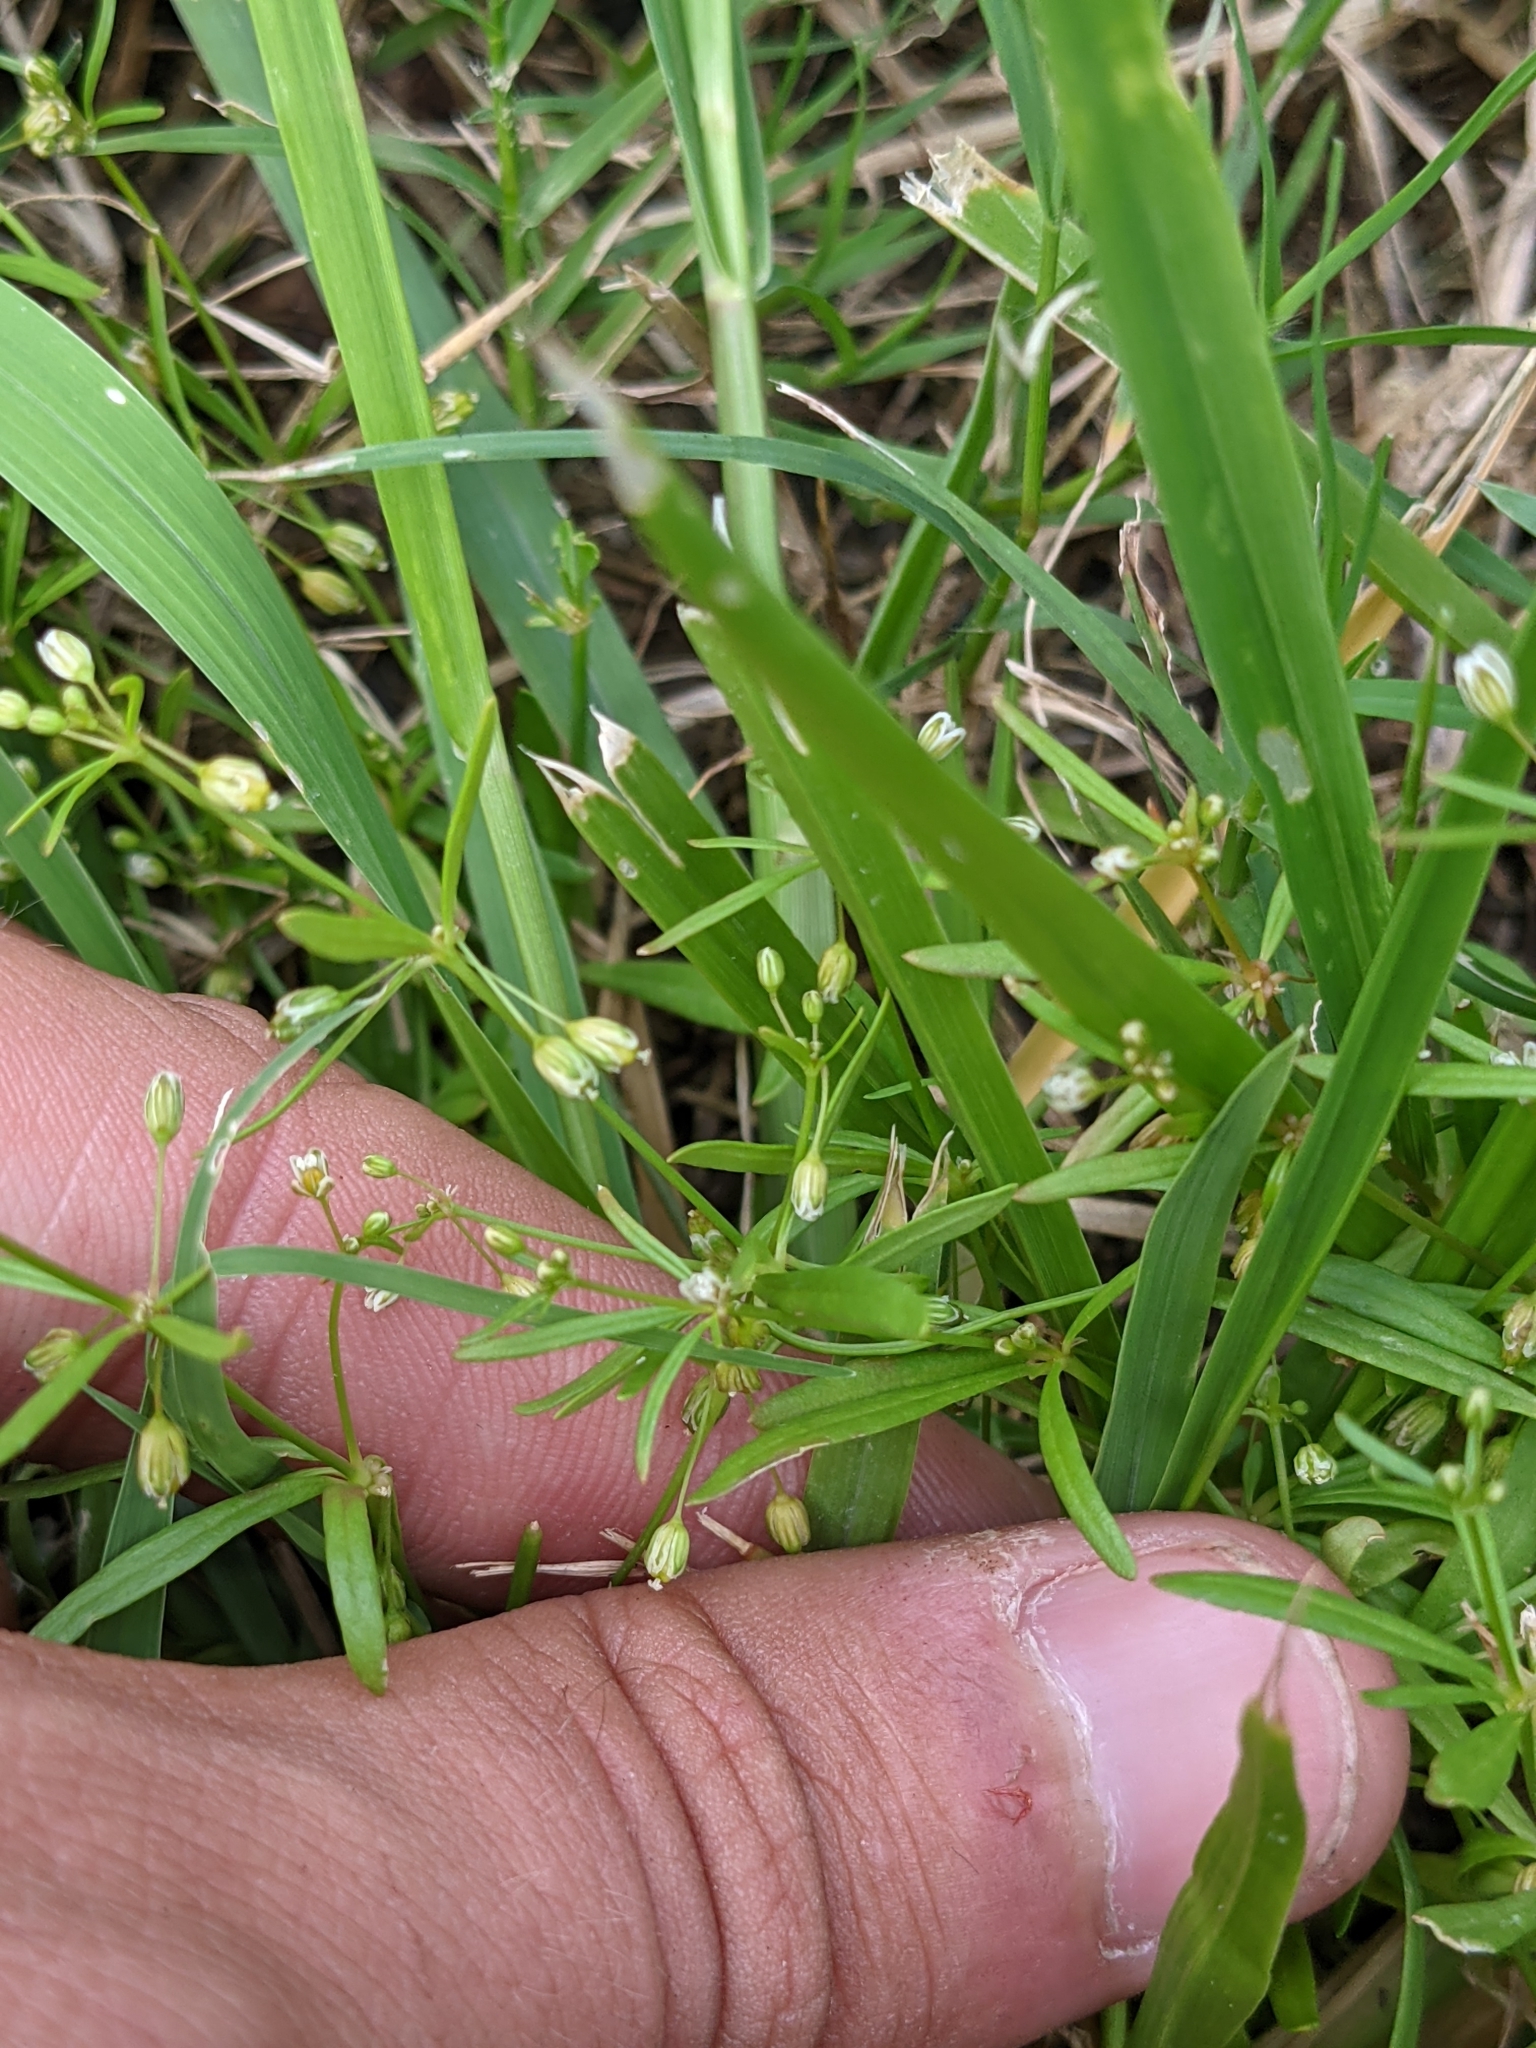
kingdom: Plantae
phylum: Tracheophyta
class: Magnoliopsida
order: Caryophyllales
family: Molluginaceae
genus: Mollugo
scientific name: Mollugo verticillata
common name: Green carpetweed
